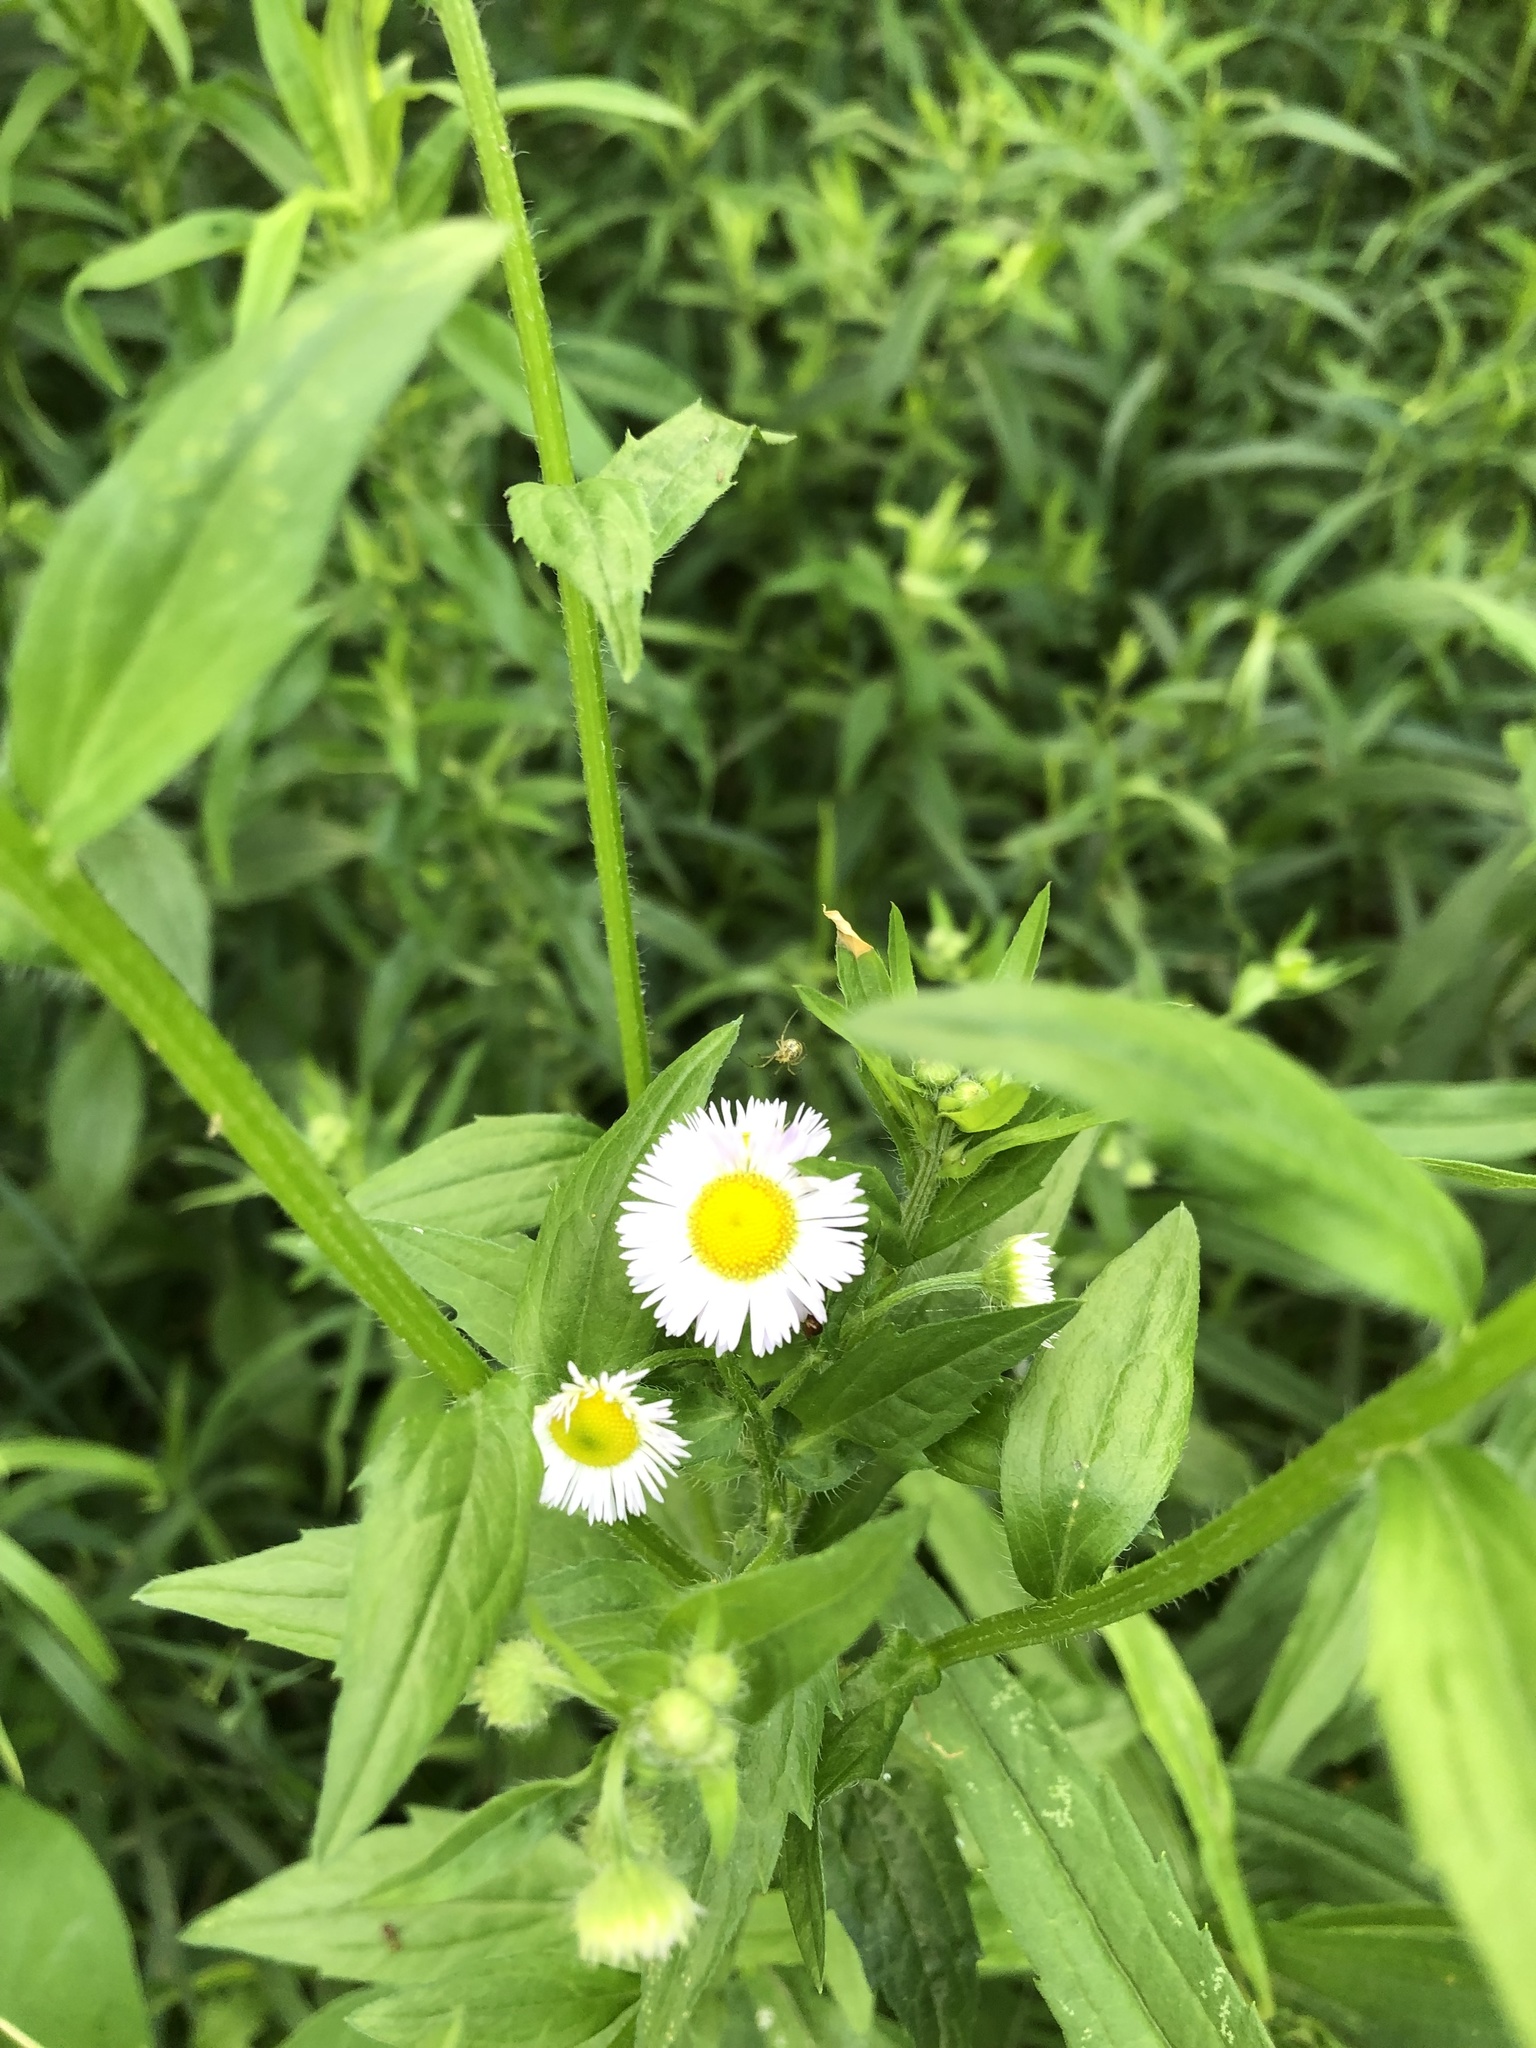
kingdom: Plantae
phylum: Tracheophyta
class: Magnoliopsida
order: Asterales
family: Asteraceae
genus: Erigeron
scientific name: Erigeron annuus
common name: Tall fleabane
